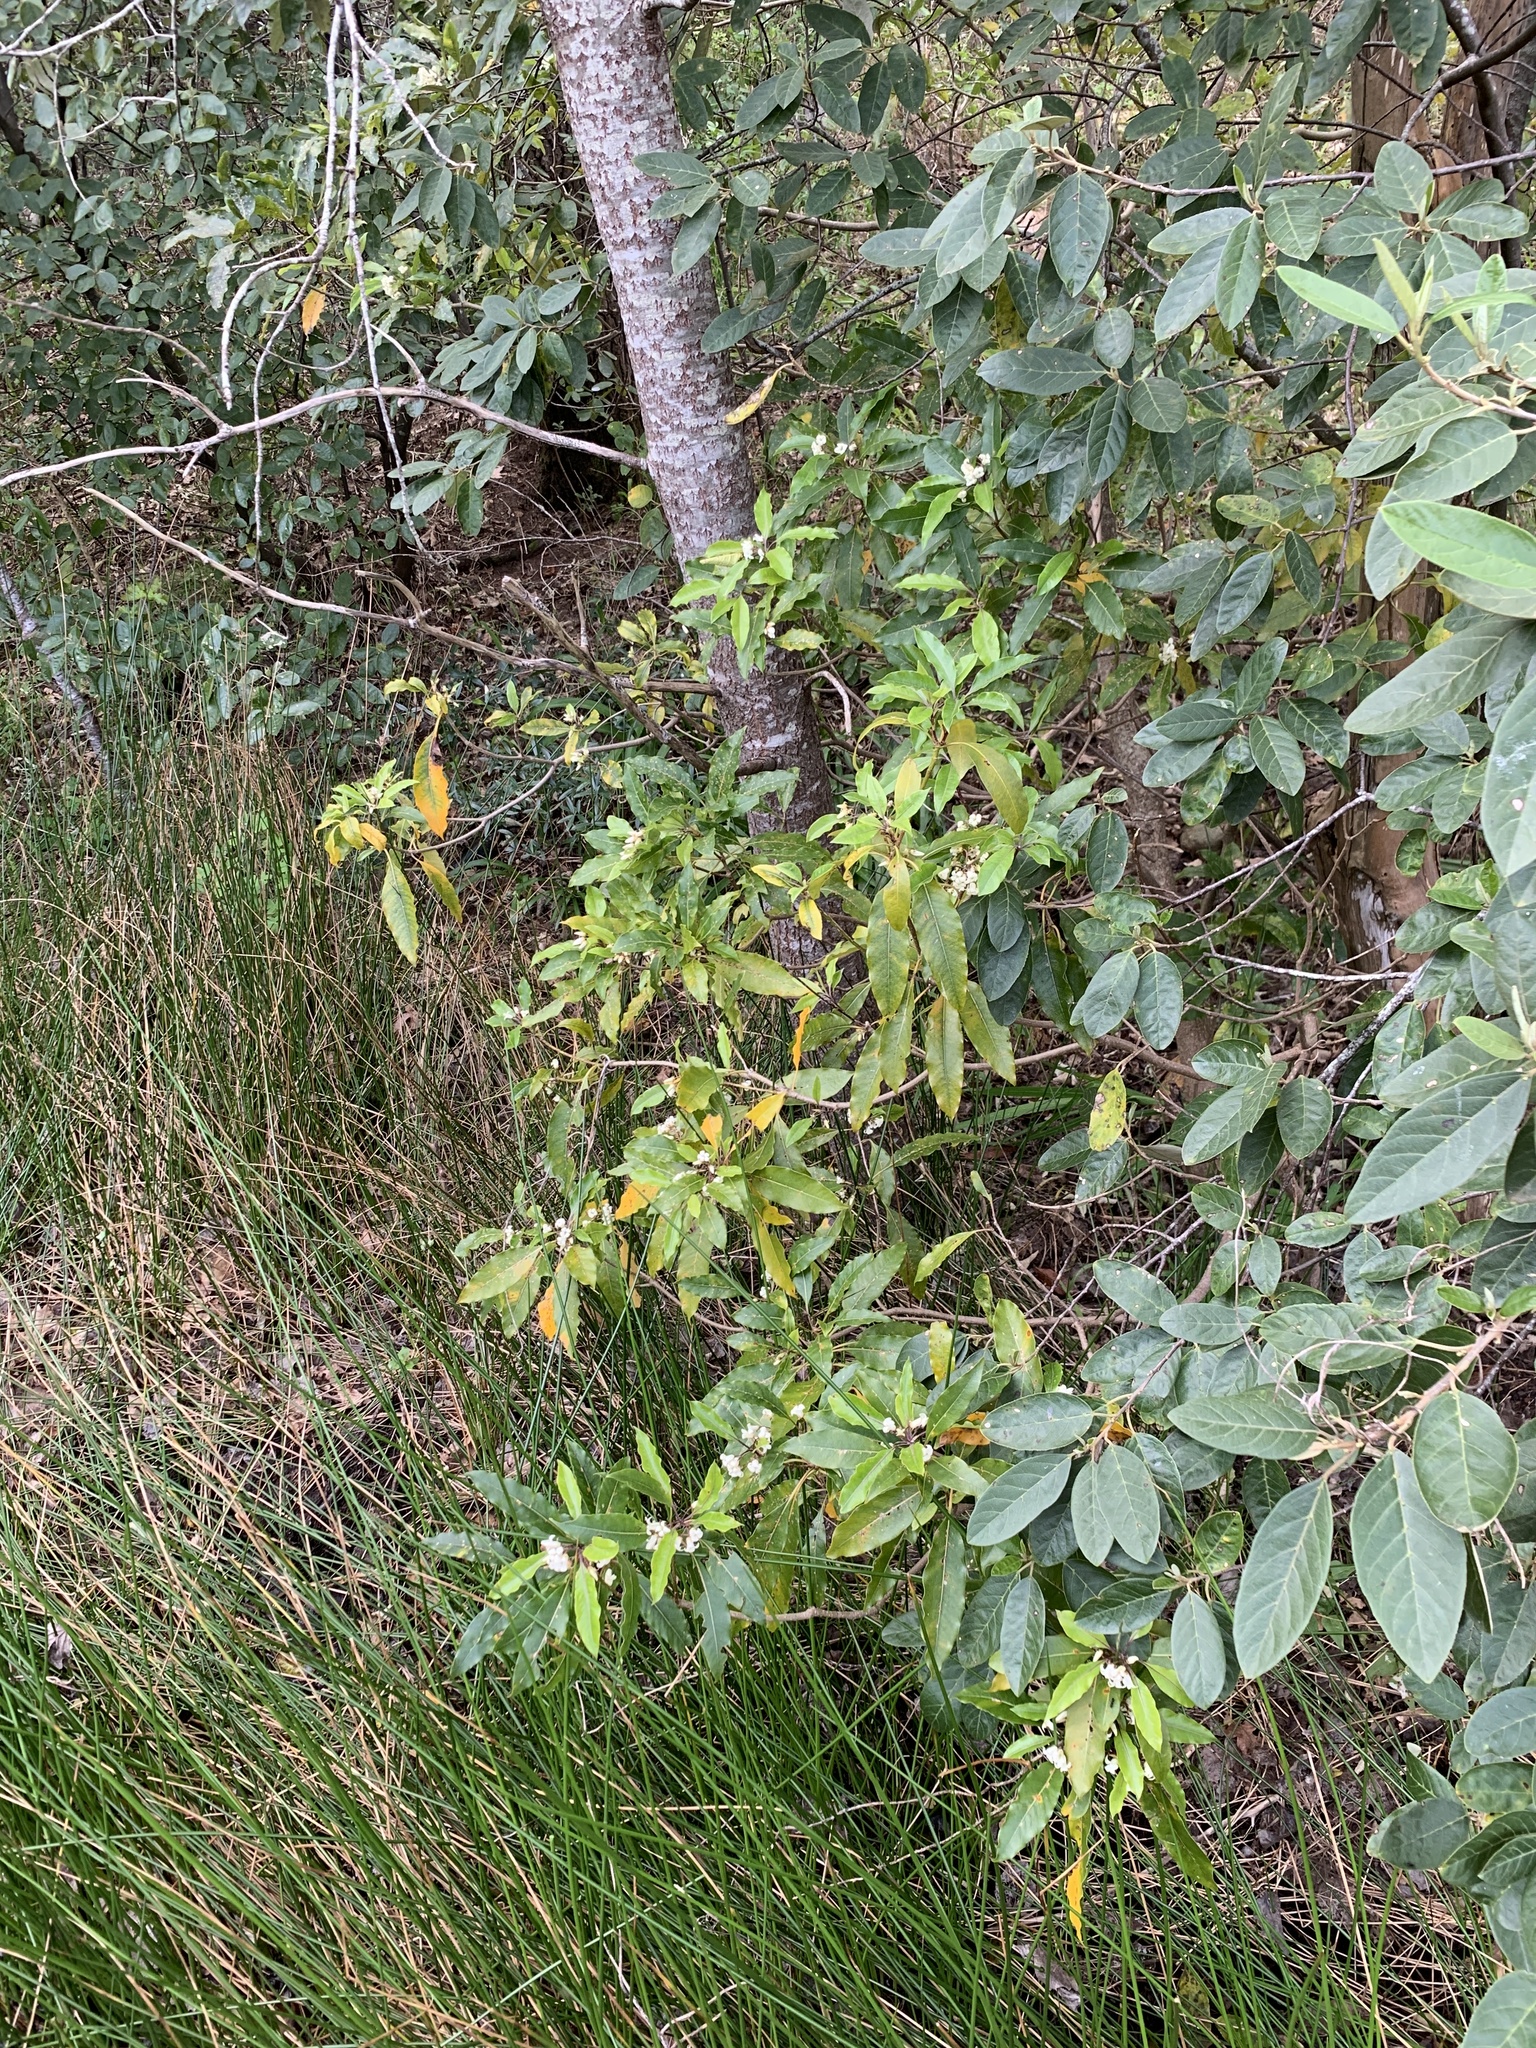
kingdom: Plantae
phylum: Tracheophyta
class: Magnoliopsida
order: Apiales
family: Pittosporaceae
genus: Pittosporum
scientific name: Pittosporum undulatum
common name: Australian cheesewood
